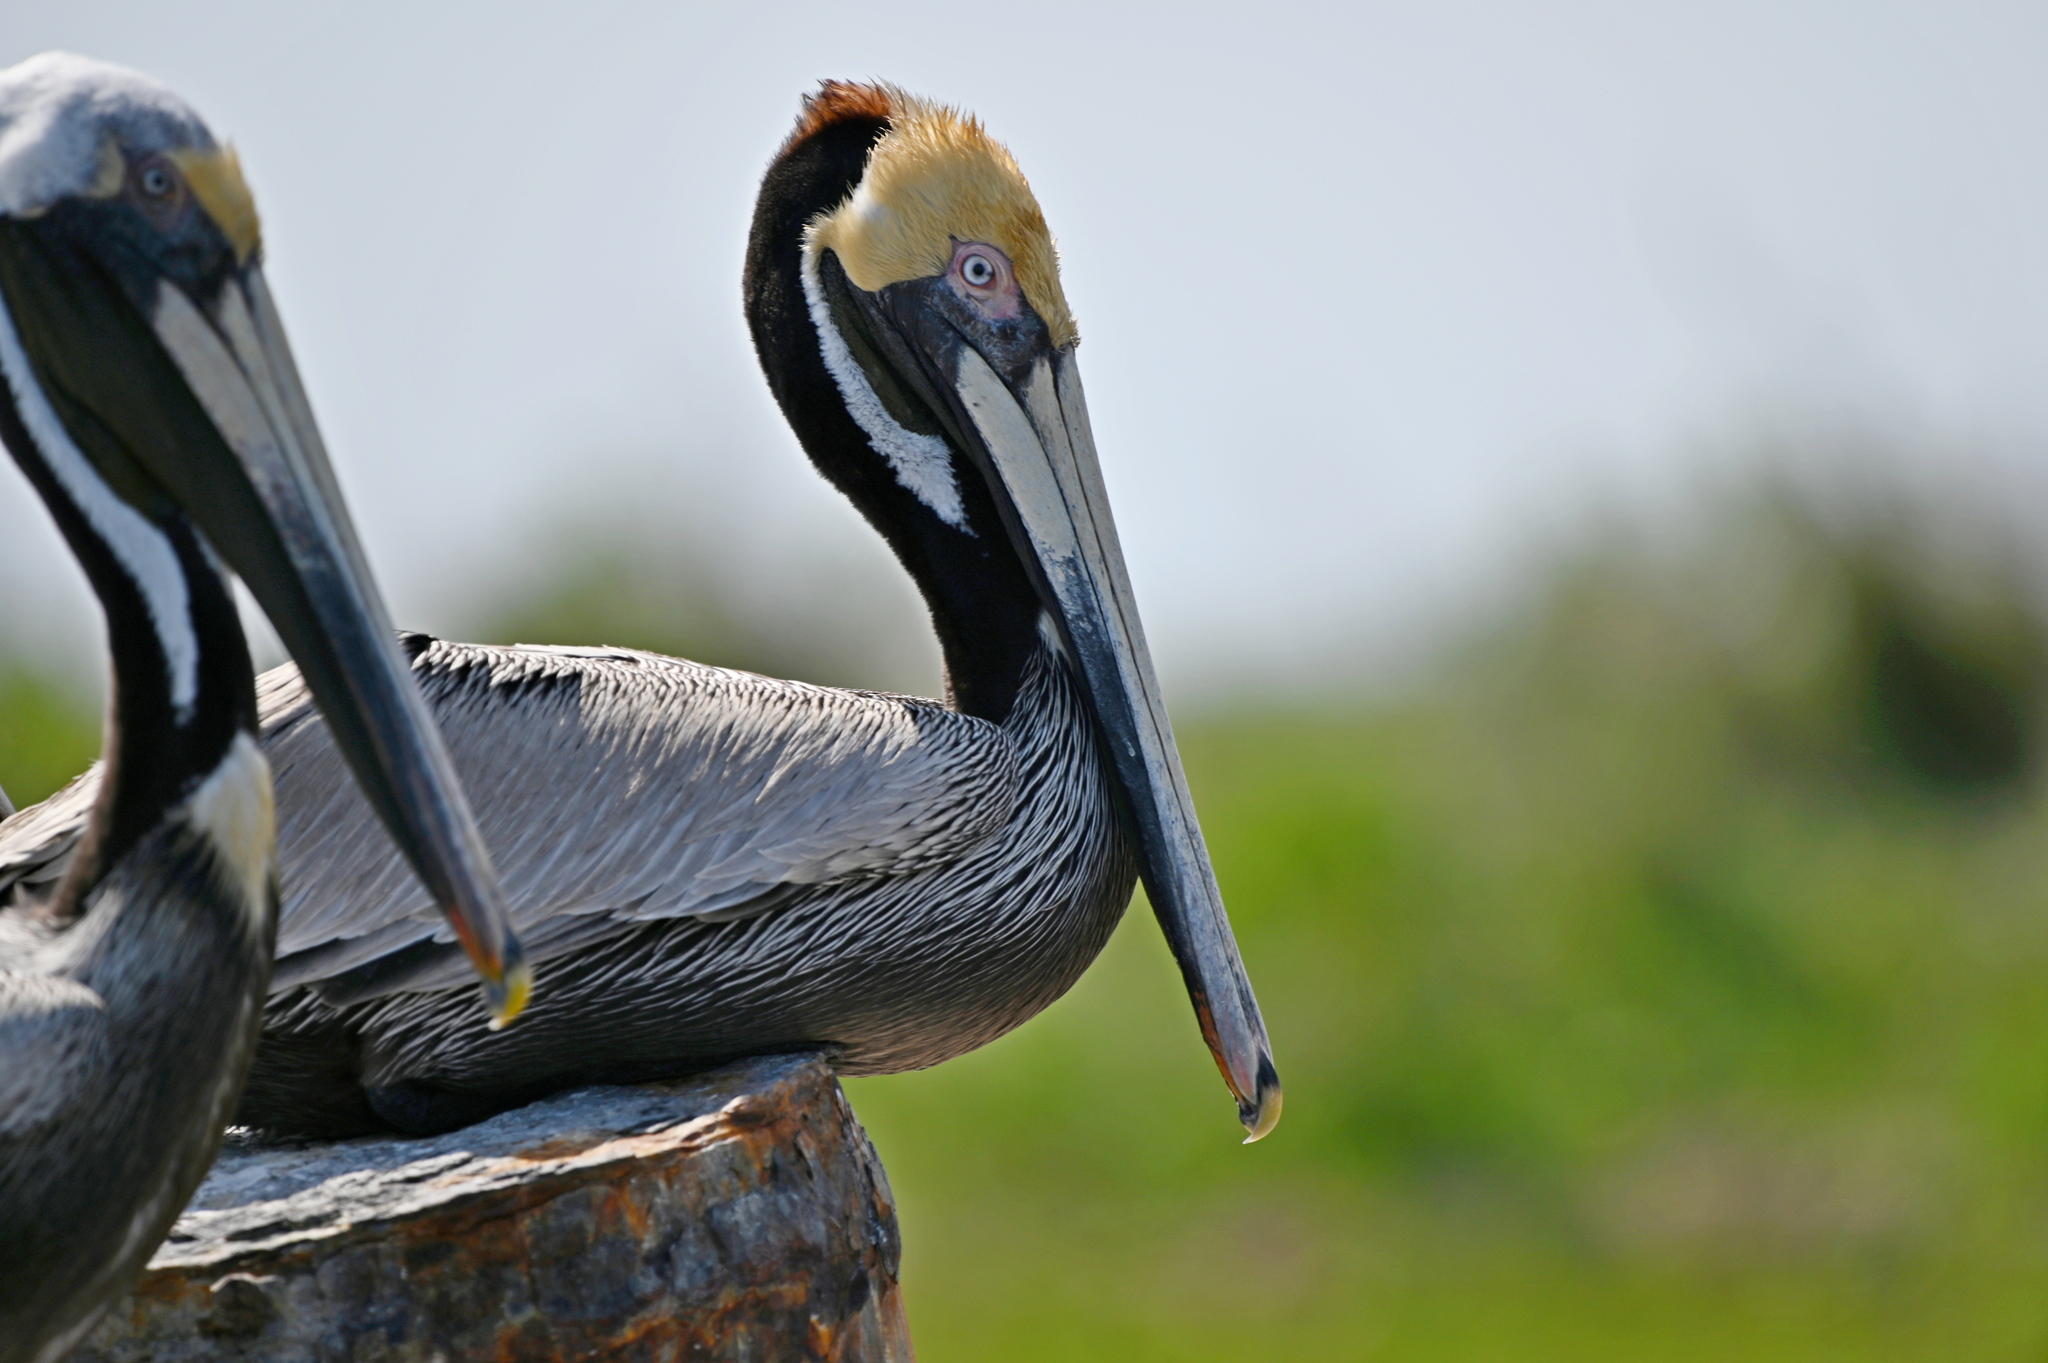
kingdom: Animalia
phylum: Chordata
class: Aves
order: Pelecaniformes
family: Pelecanidae
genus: Pelecanus
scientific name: Pelecanus occidentalis
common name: Brown pelican
